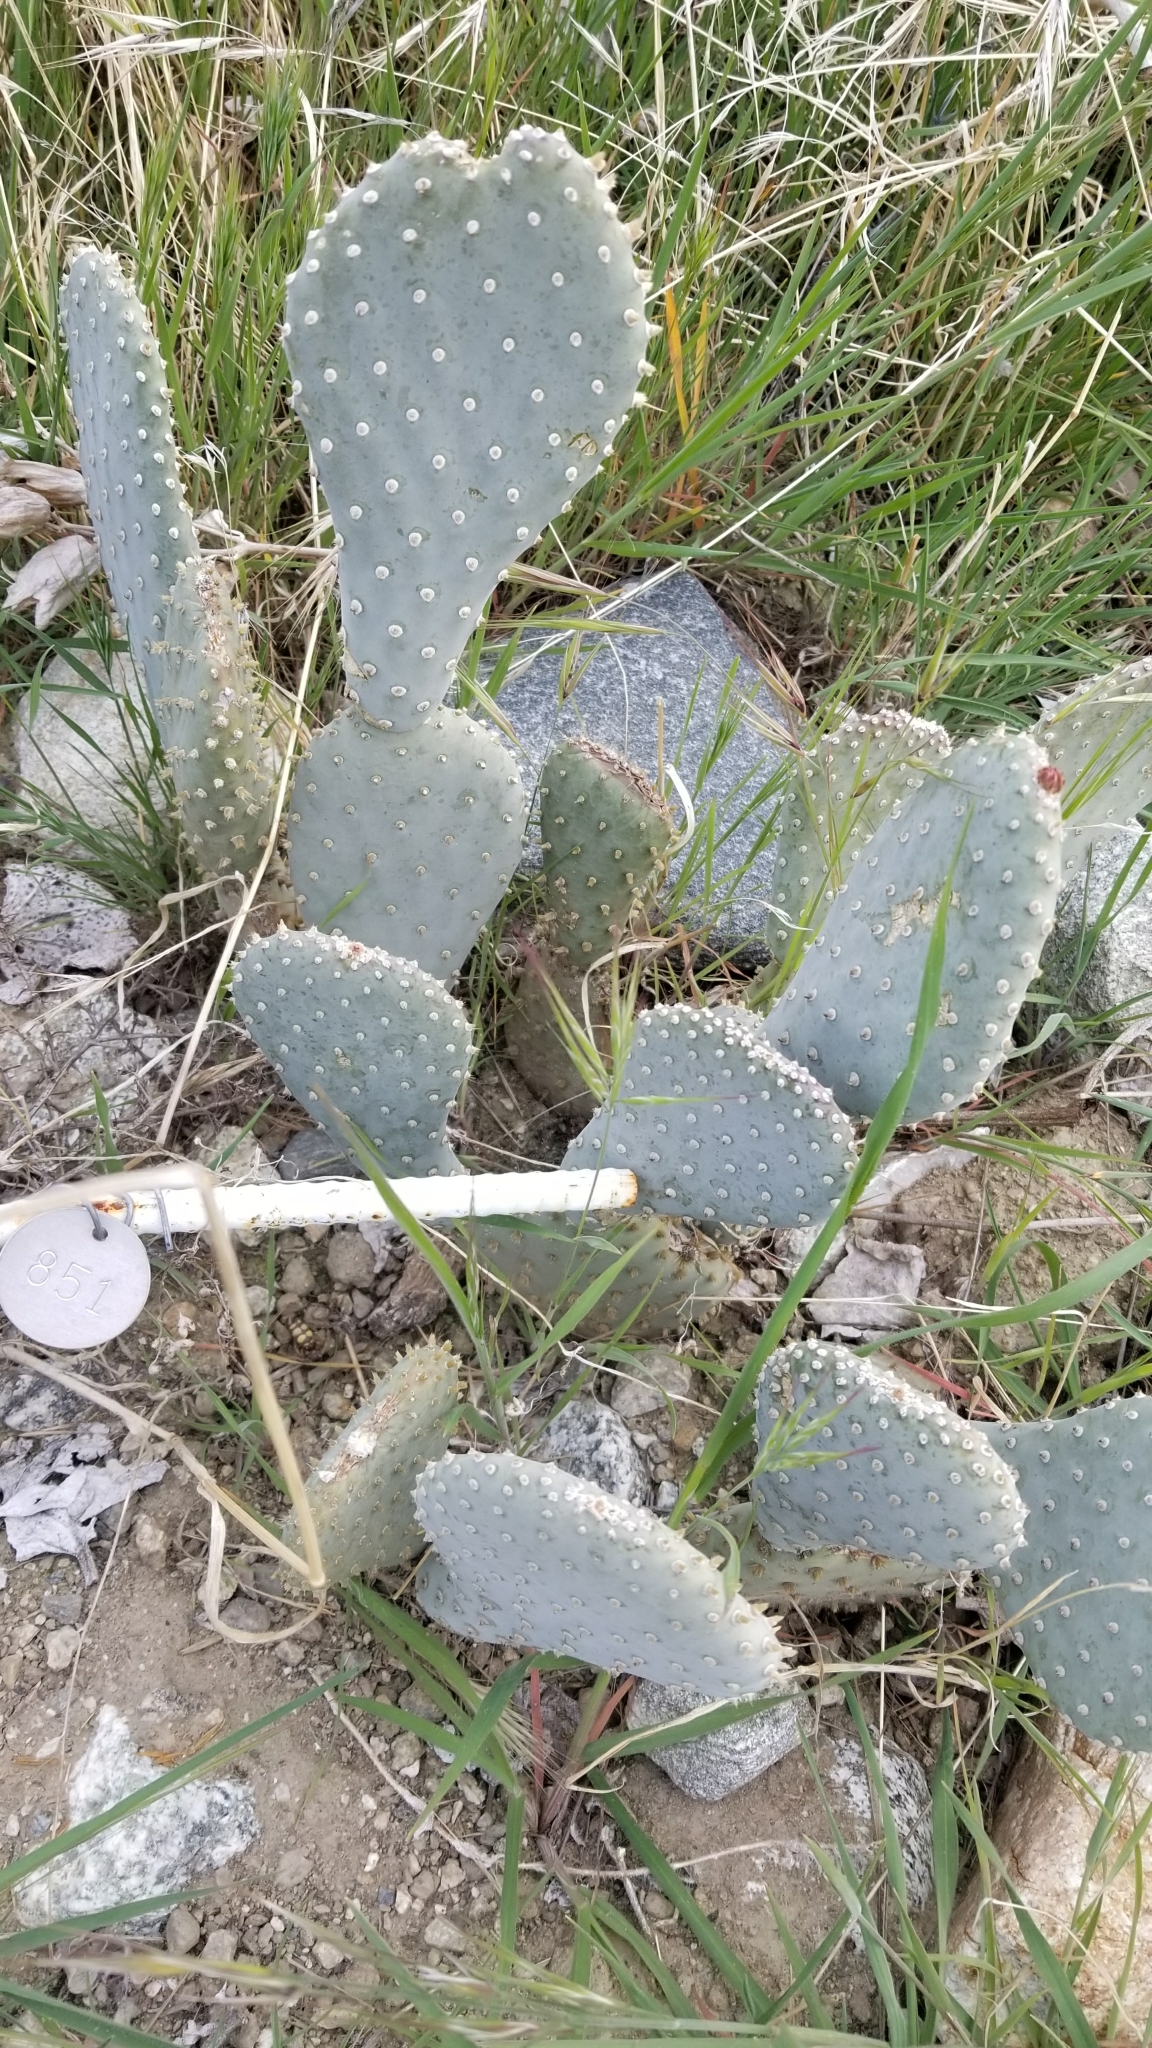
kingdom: Plantae
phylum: Tracheophyta
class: Magnoliopsida
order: Caryophyllales
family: Cactaceae
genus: Opuntia
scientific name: Opuntia basilaris
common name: Beavertail prickly-pear
